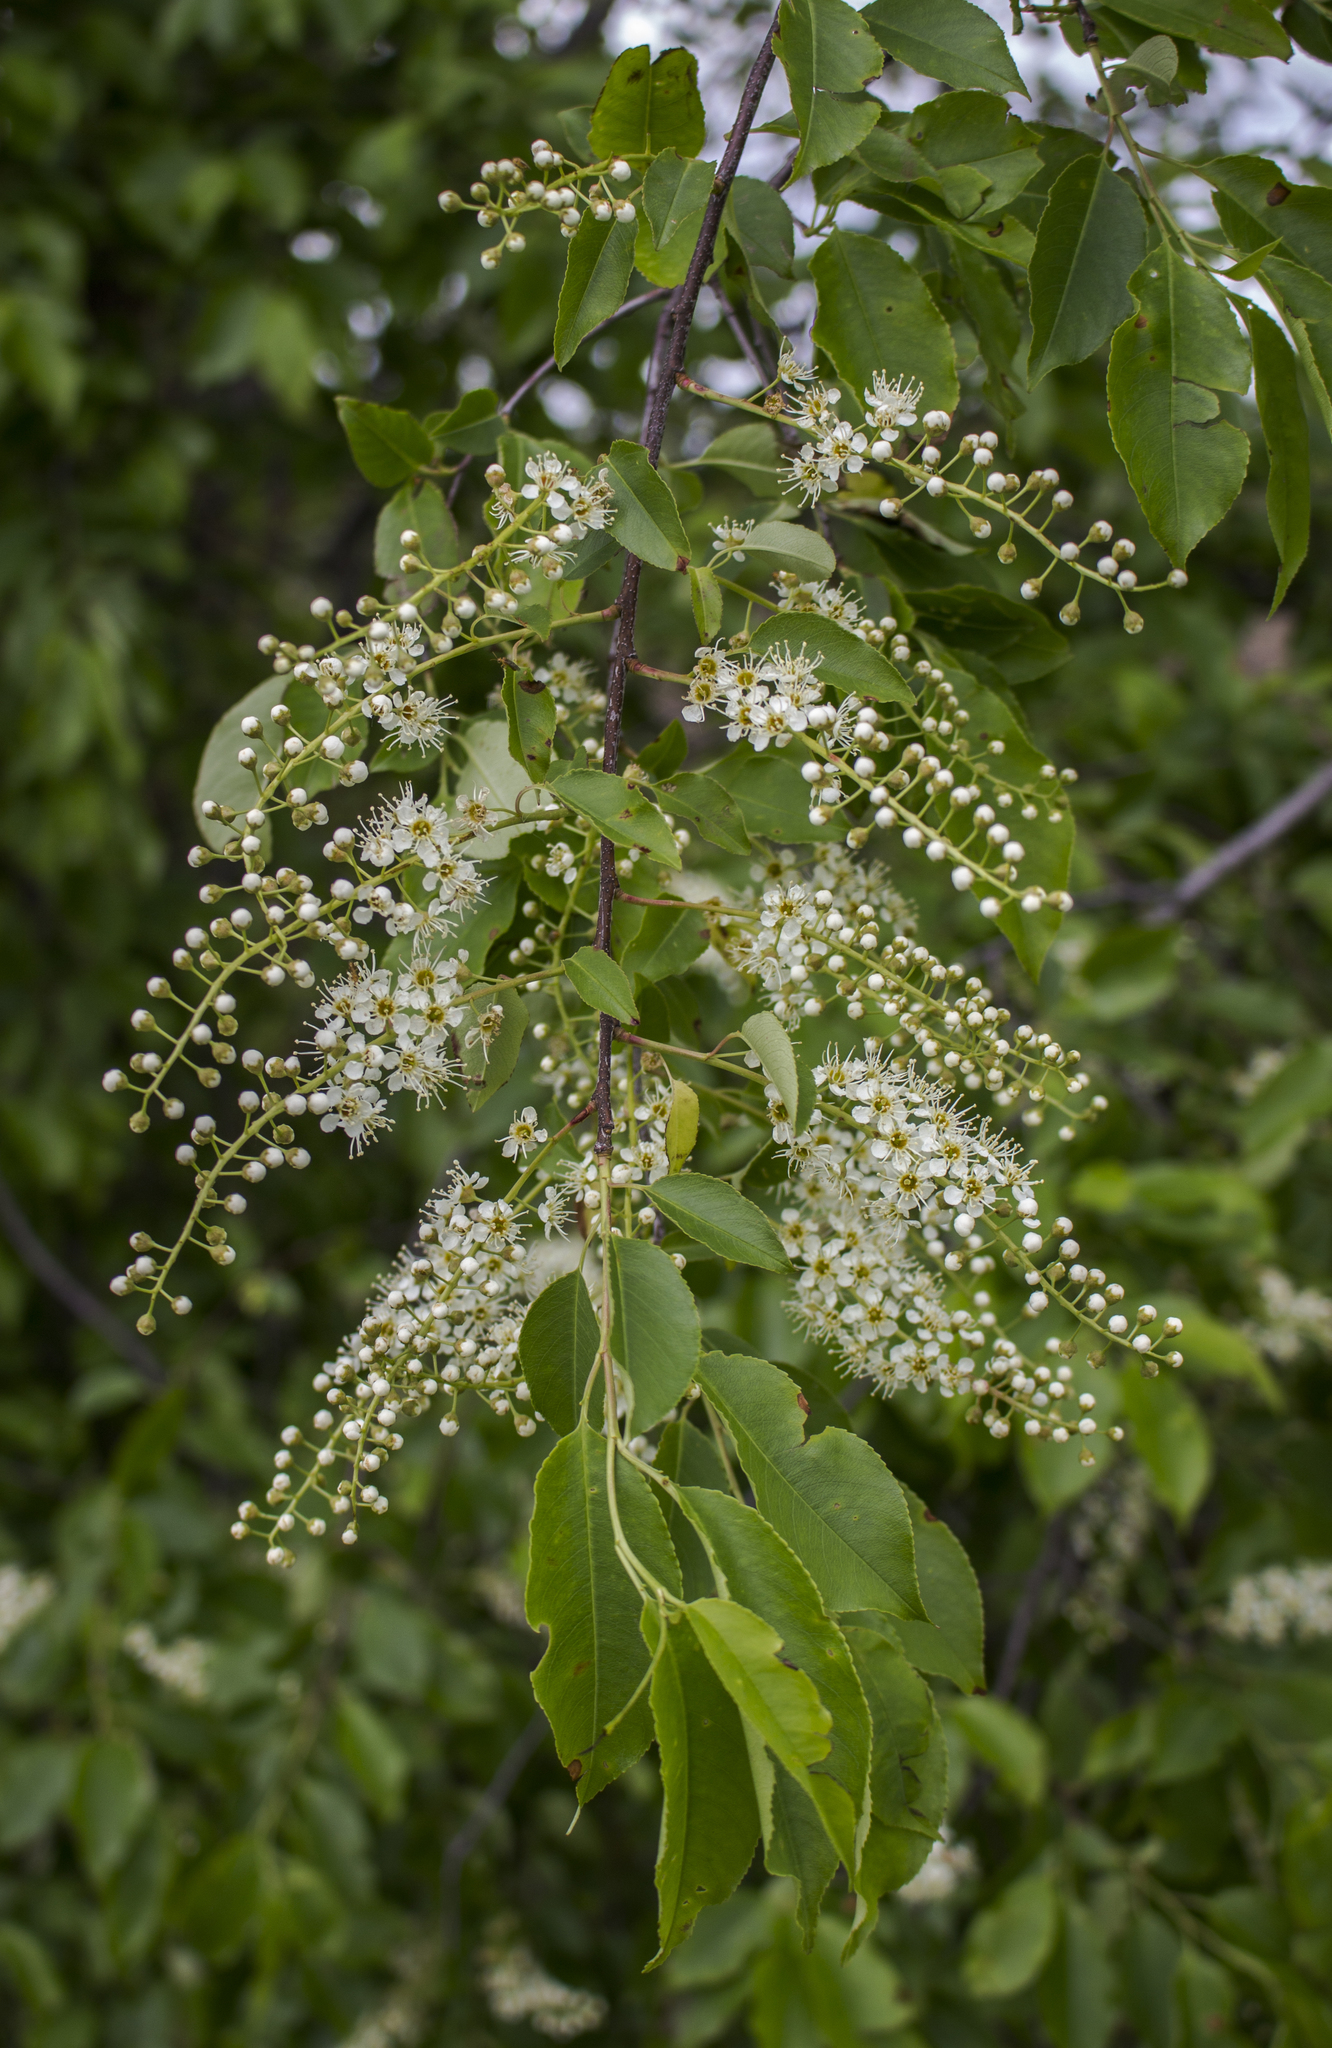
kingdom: Plantae
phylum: Tracheophyta
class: Magnoliopsida
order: Rosales
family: Rosaceae
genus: Prunus
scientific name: Prunus serotina
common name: Black cherry
